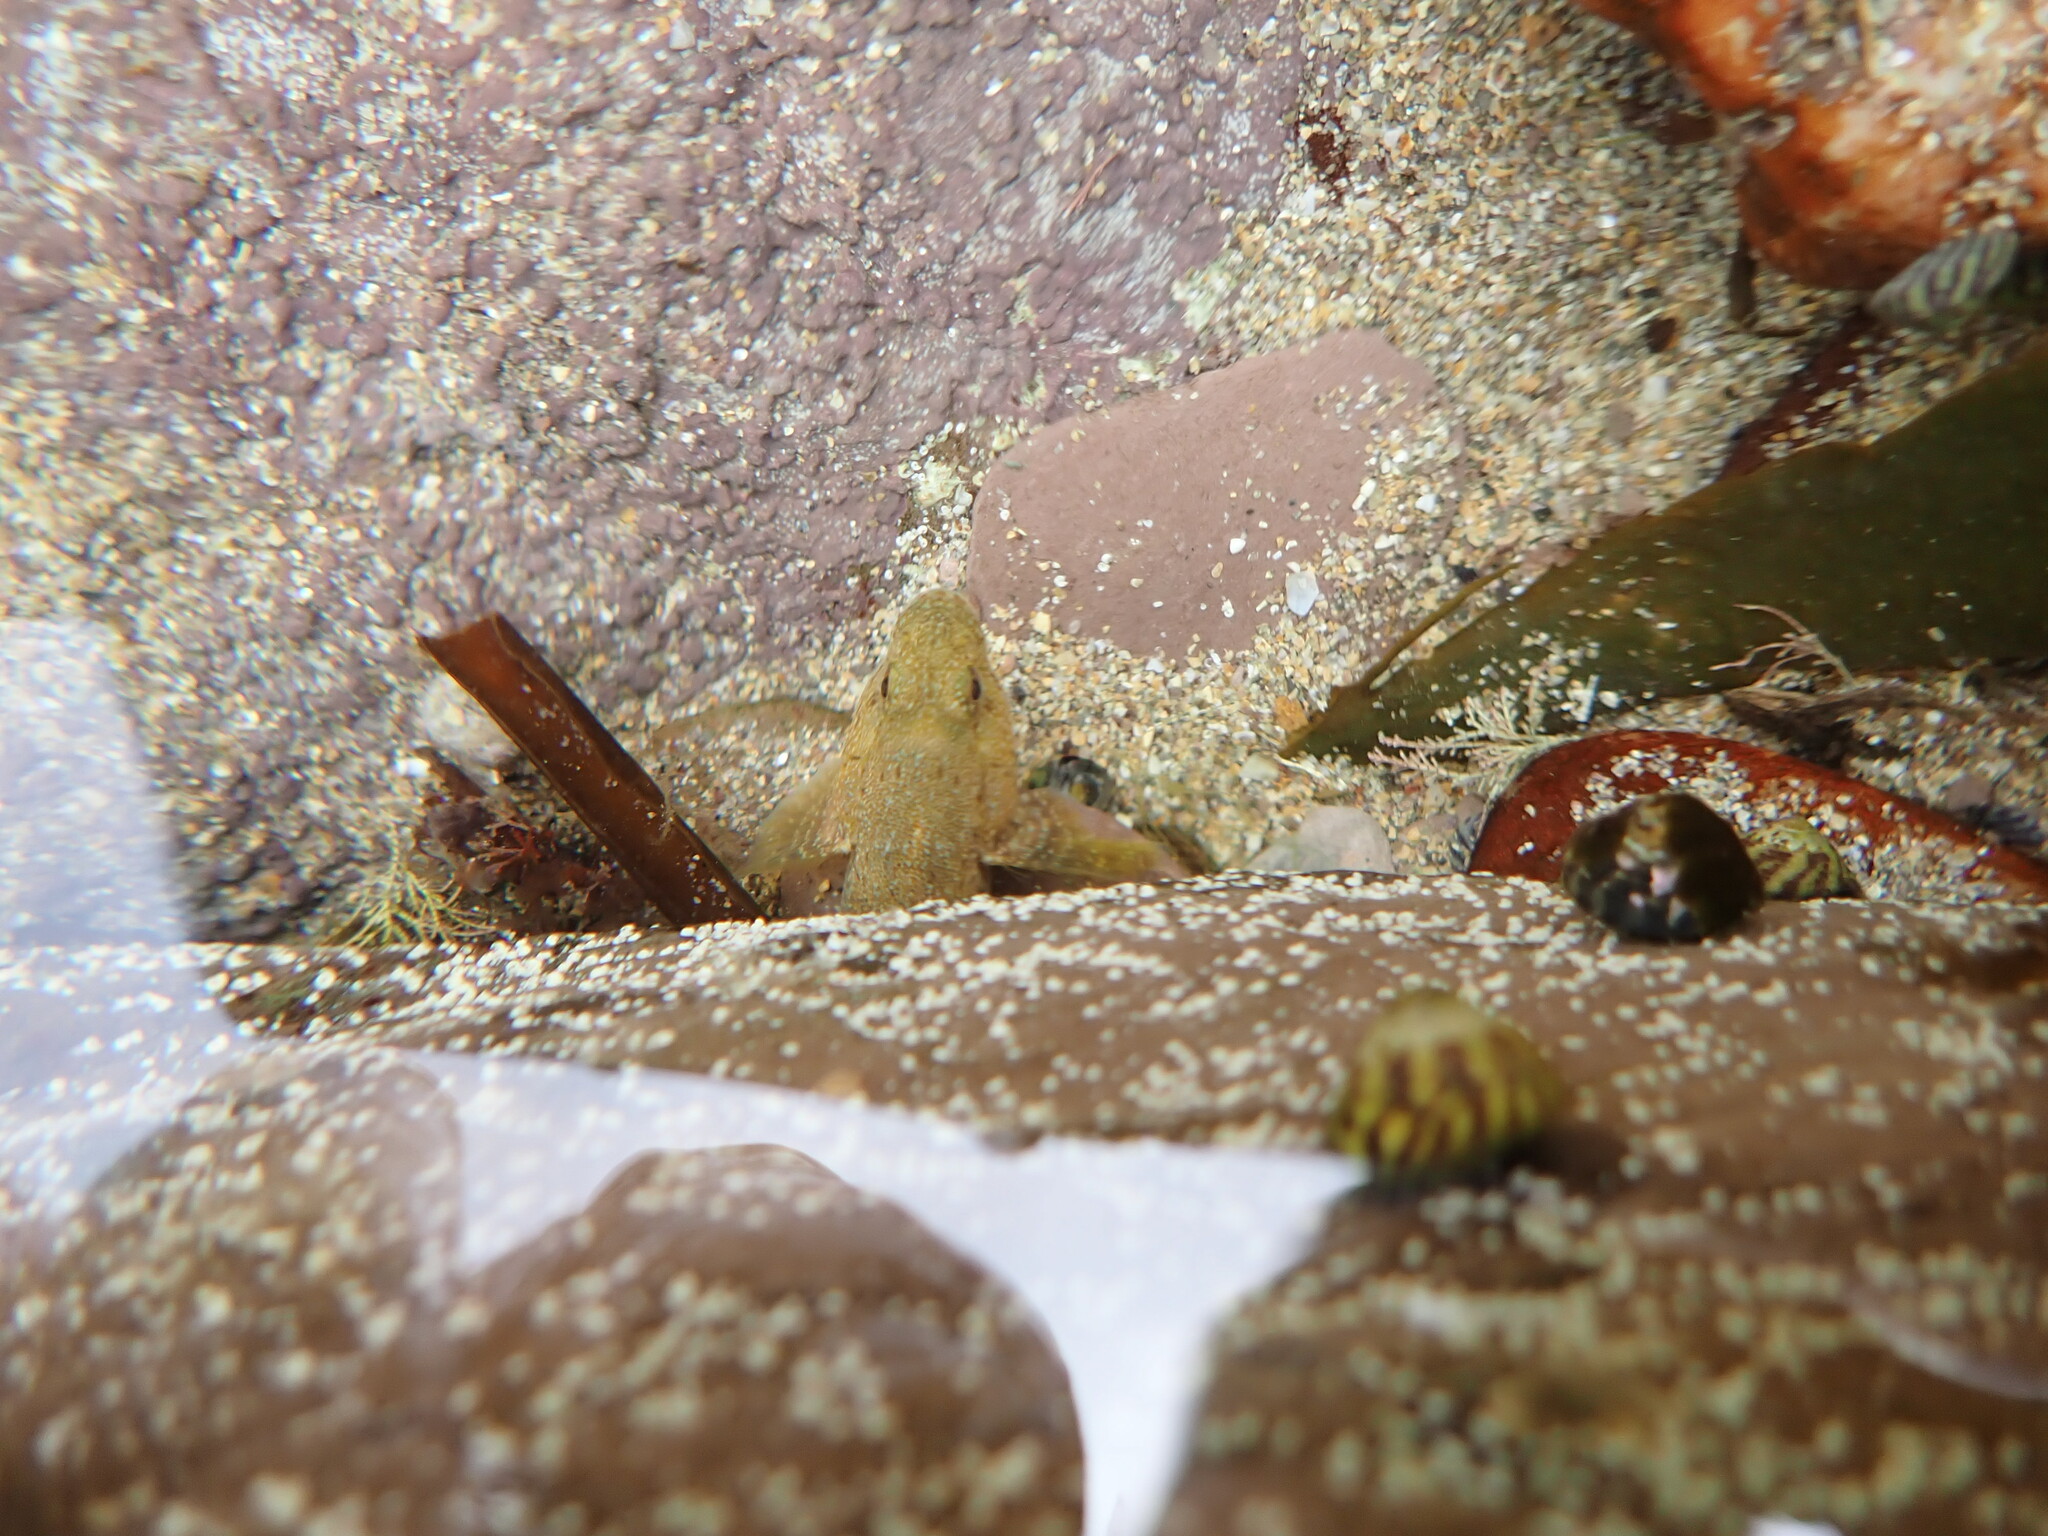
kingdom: Animalia
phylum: Chordata
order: Perciformes
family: Gobiidae
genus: Gobius
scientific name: Gobius cobitis
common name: Giant goby
